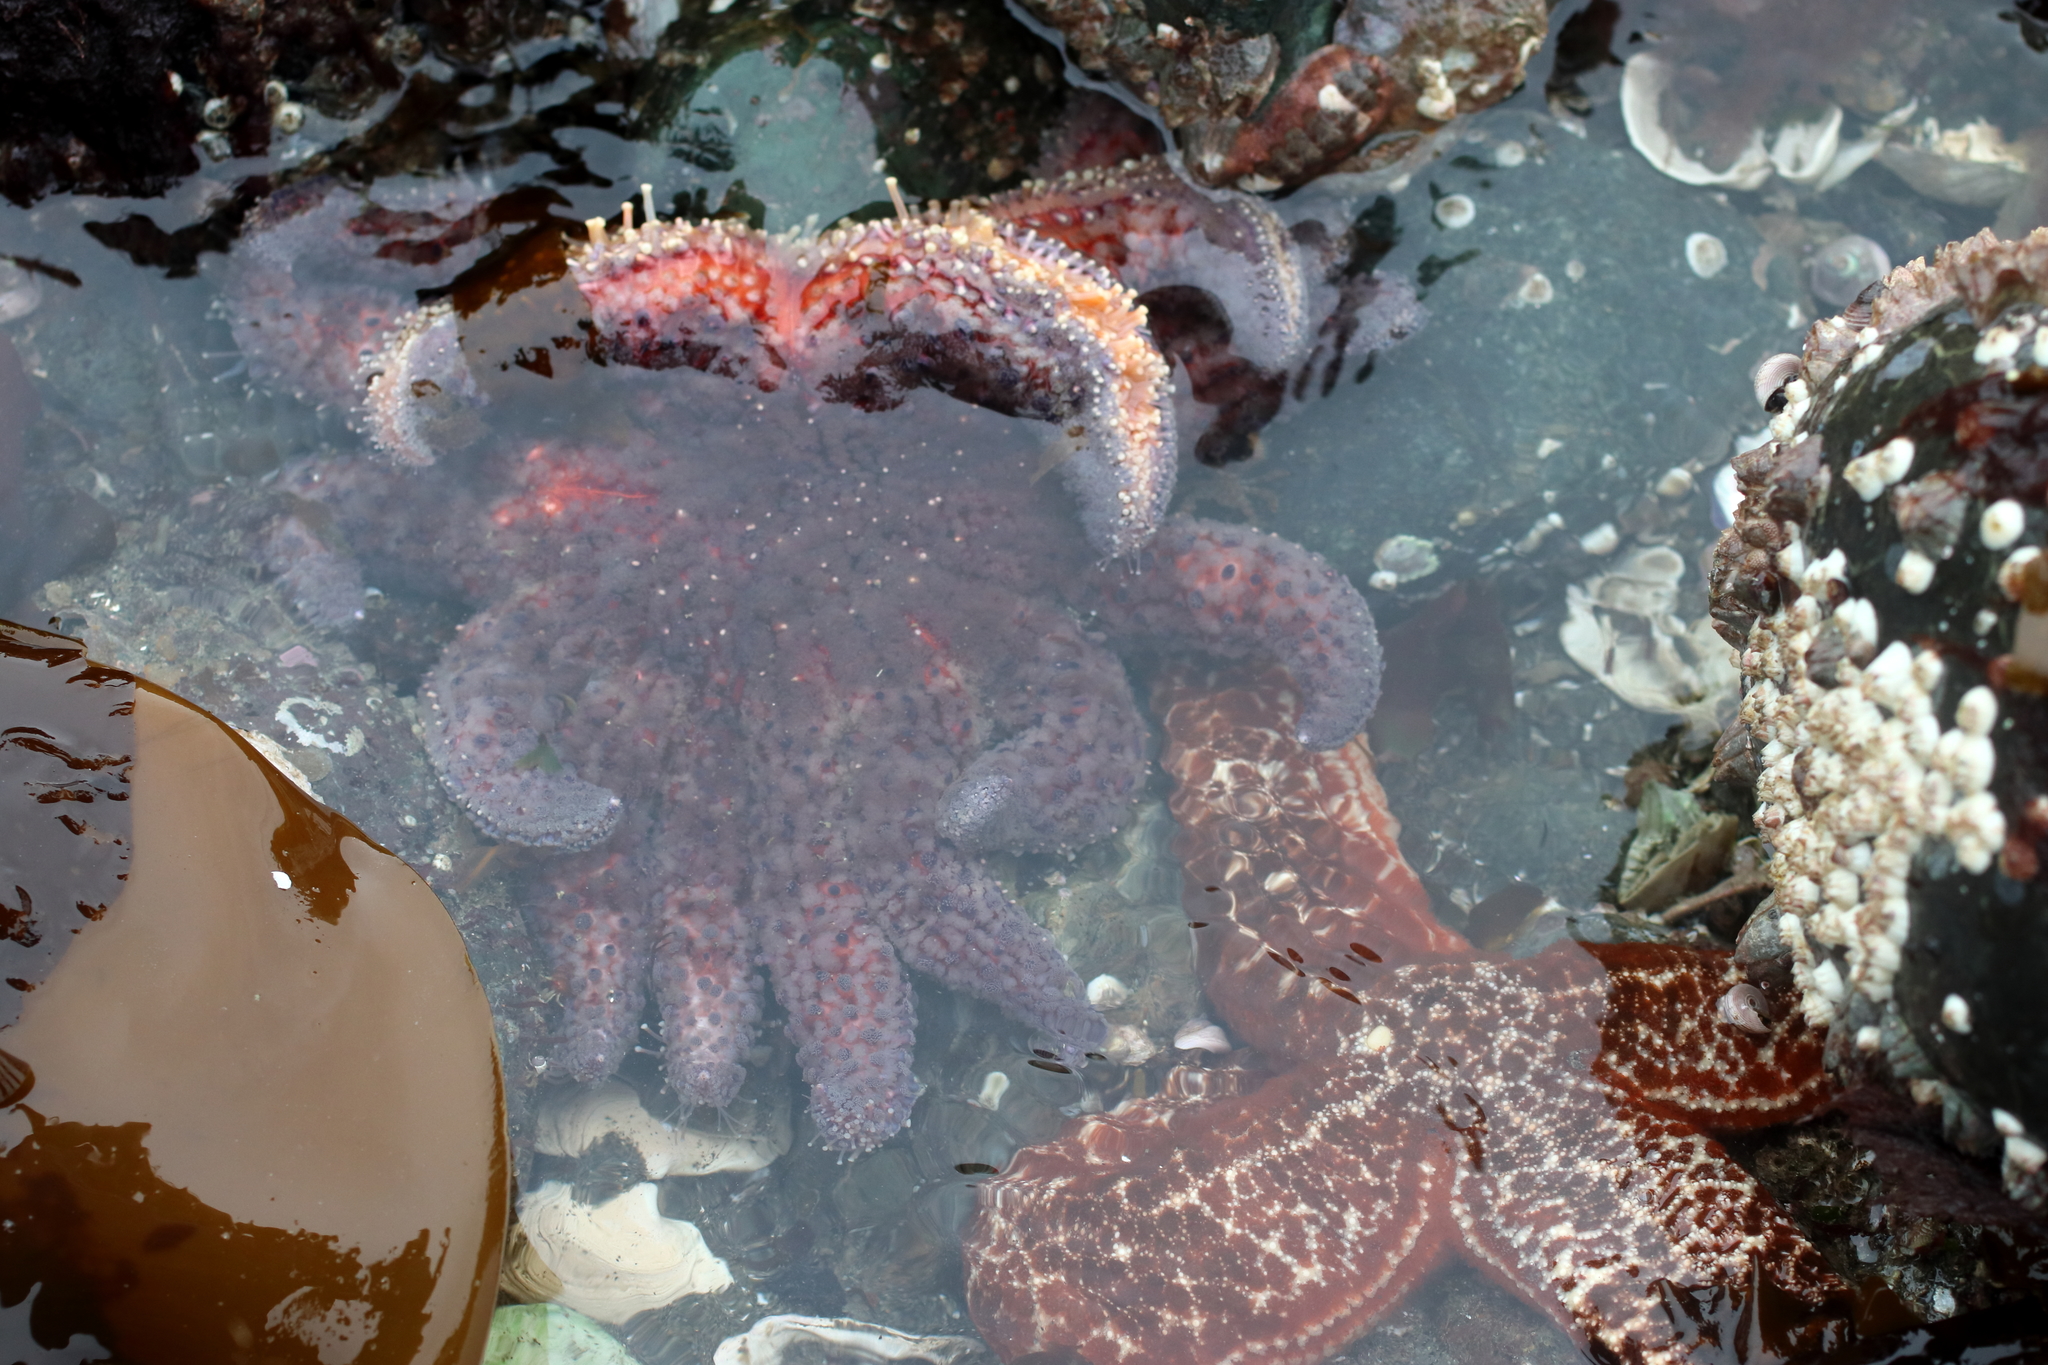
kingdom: Animalia
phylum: Echinodermata
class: Asteroidea
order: Forcipulatida
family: Asteriidae
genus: Pycnopodia
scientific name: Pycnopodia helianthoides
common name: Rag mop
